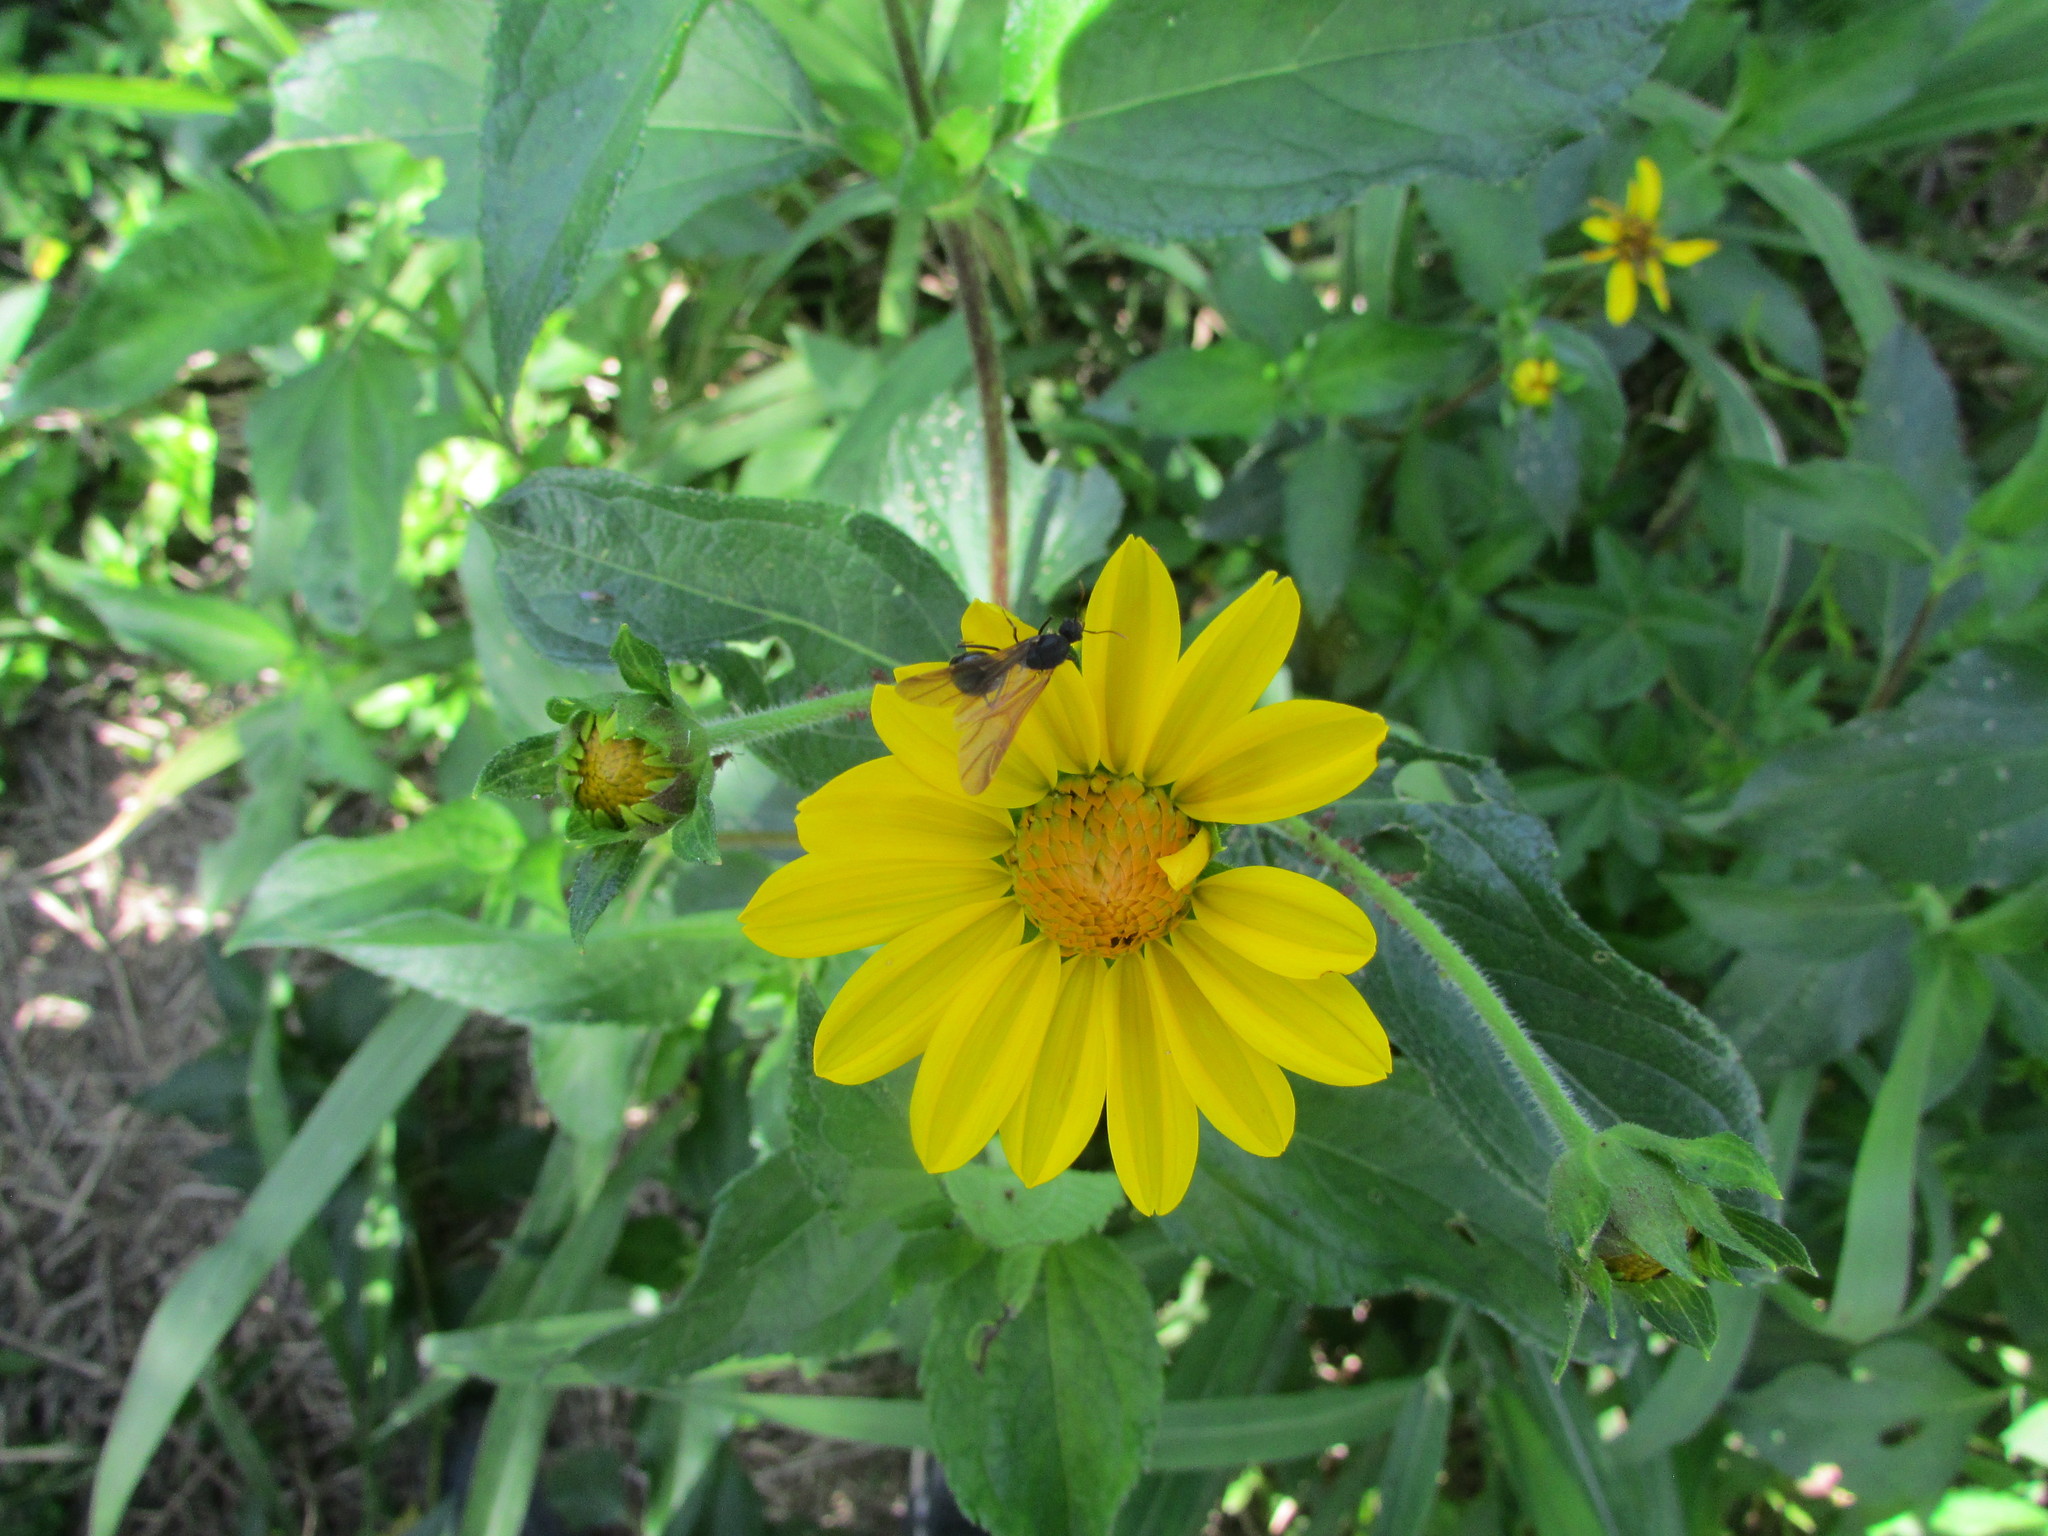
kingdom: Plantae
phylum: Tracheophyta
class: Magnoliopsida
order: Asterales
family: Asteraceae
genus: Wedelia
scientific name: Wedelia silphioides
